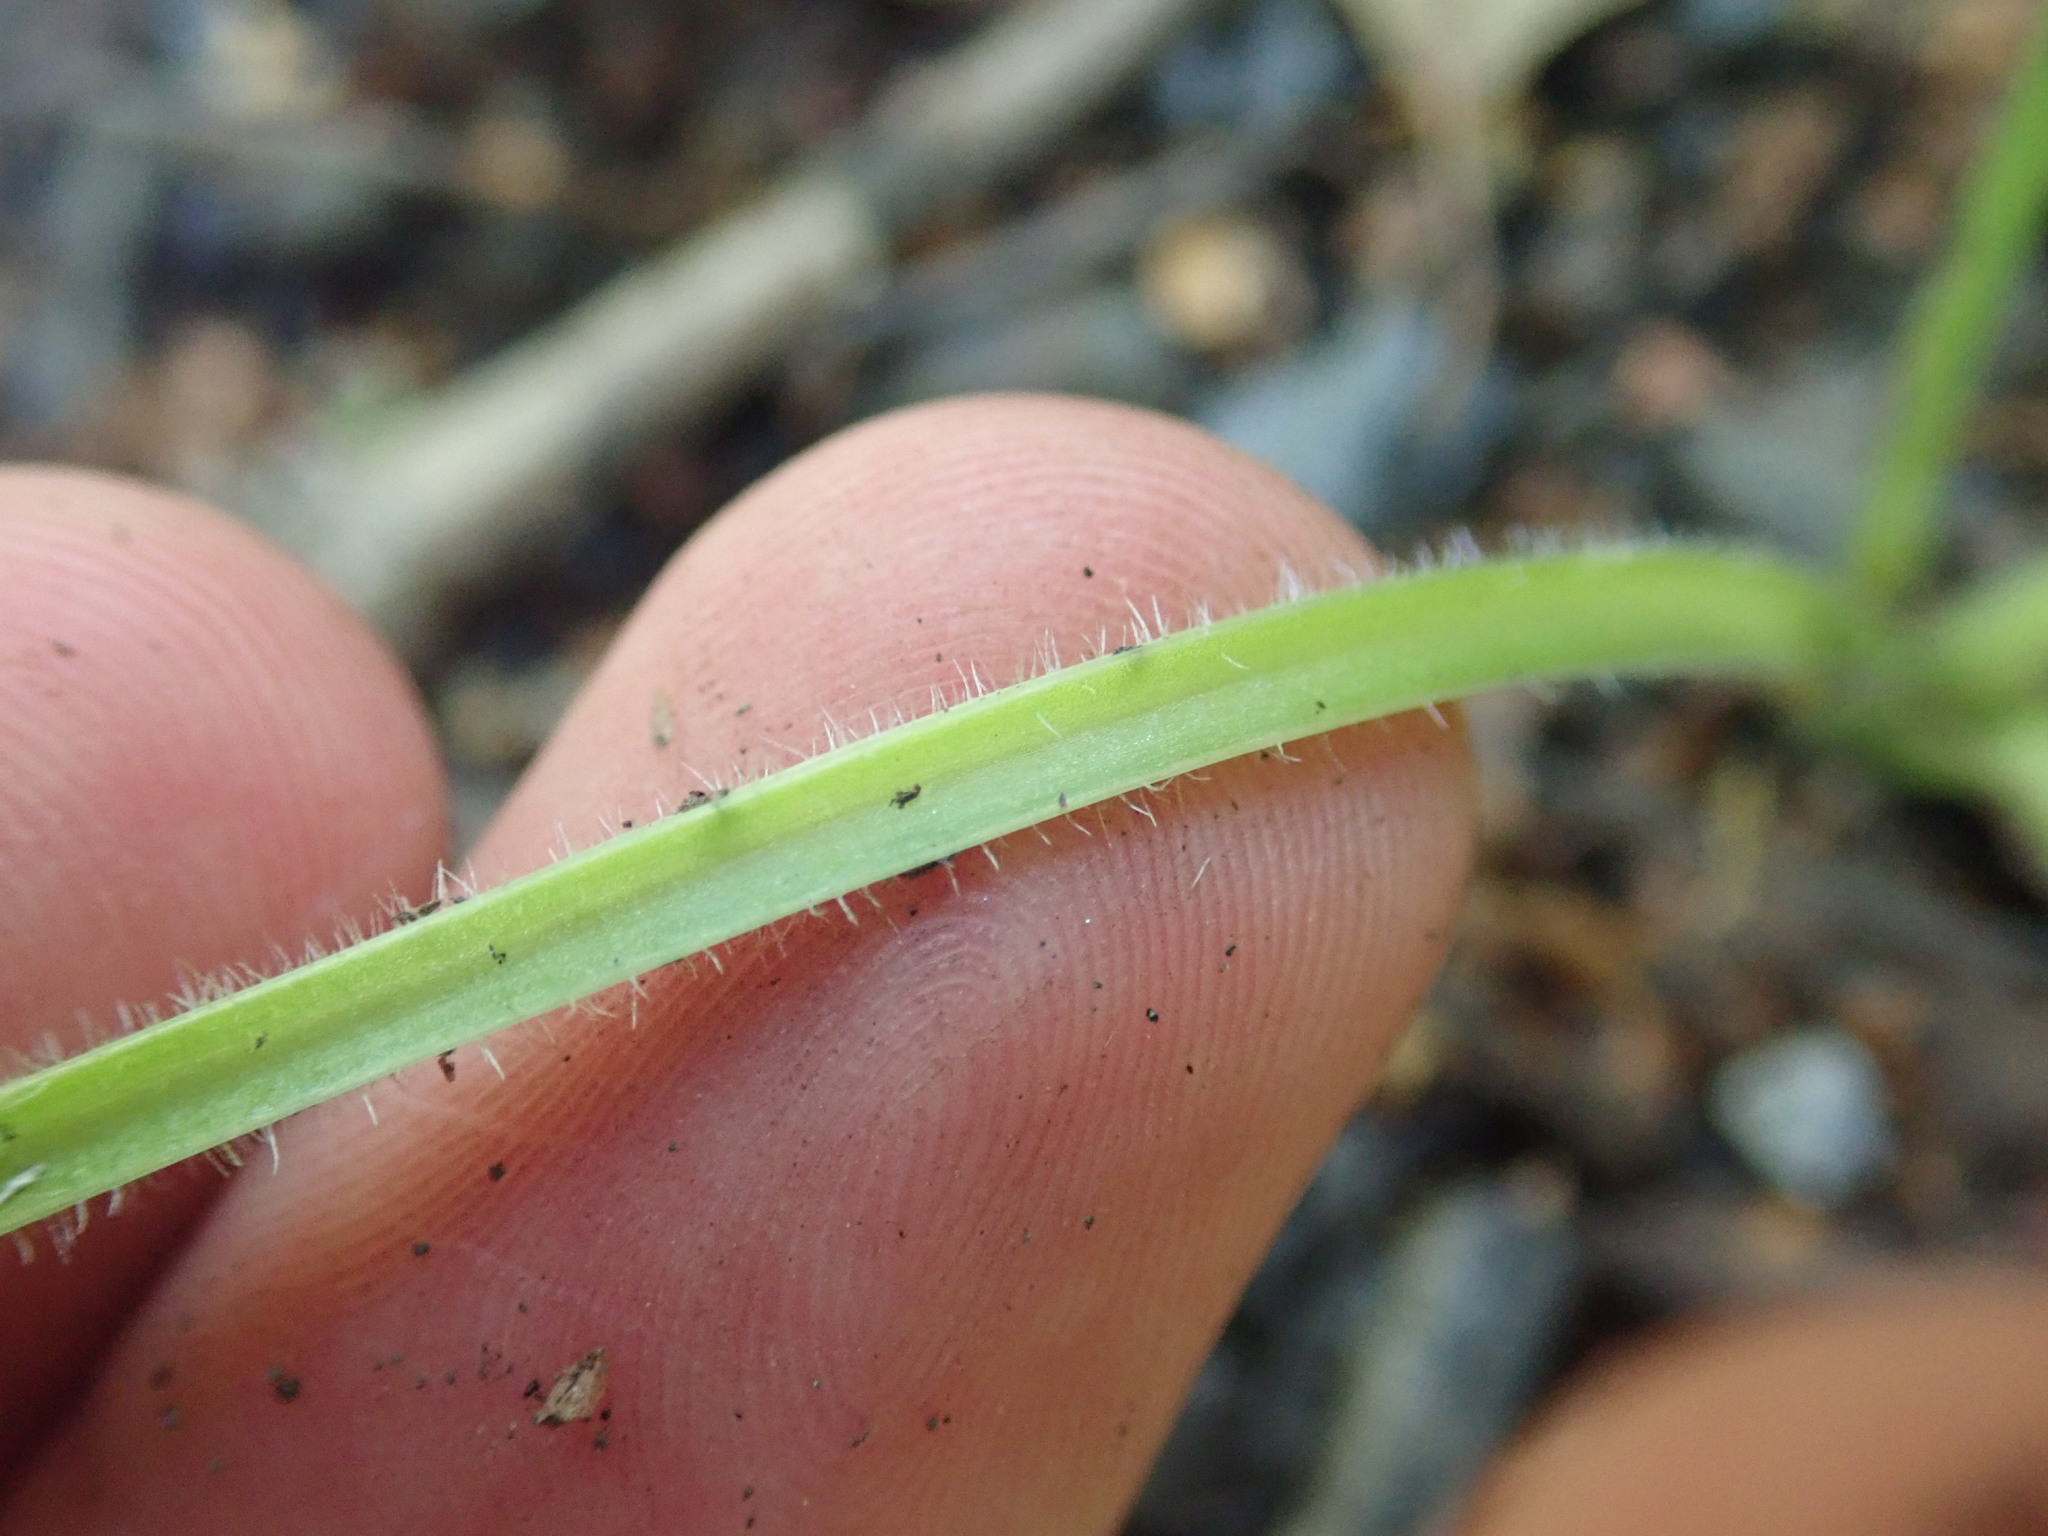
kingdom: Plantae
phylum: Tracheophyta
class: Magnoliopsida
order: Lamiales
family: Plantaginaceae
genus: Plantago
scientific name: Plantago major
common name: Common plantain
